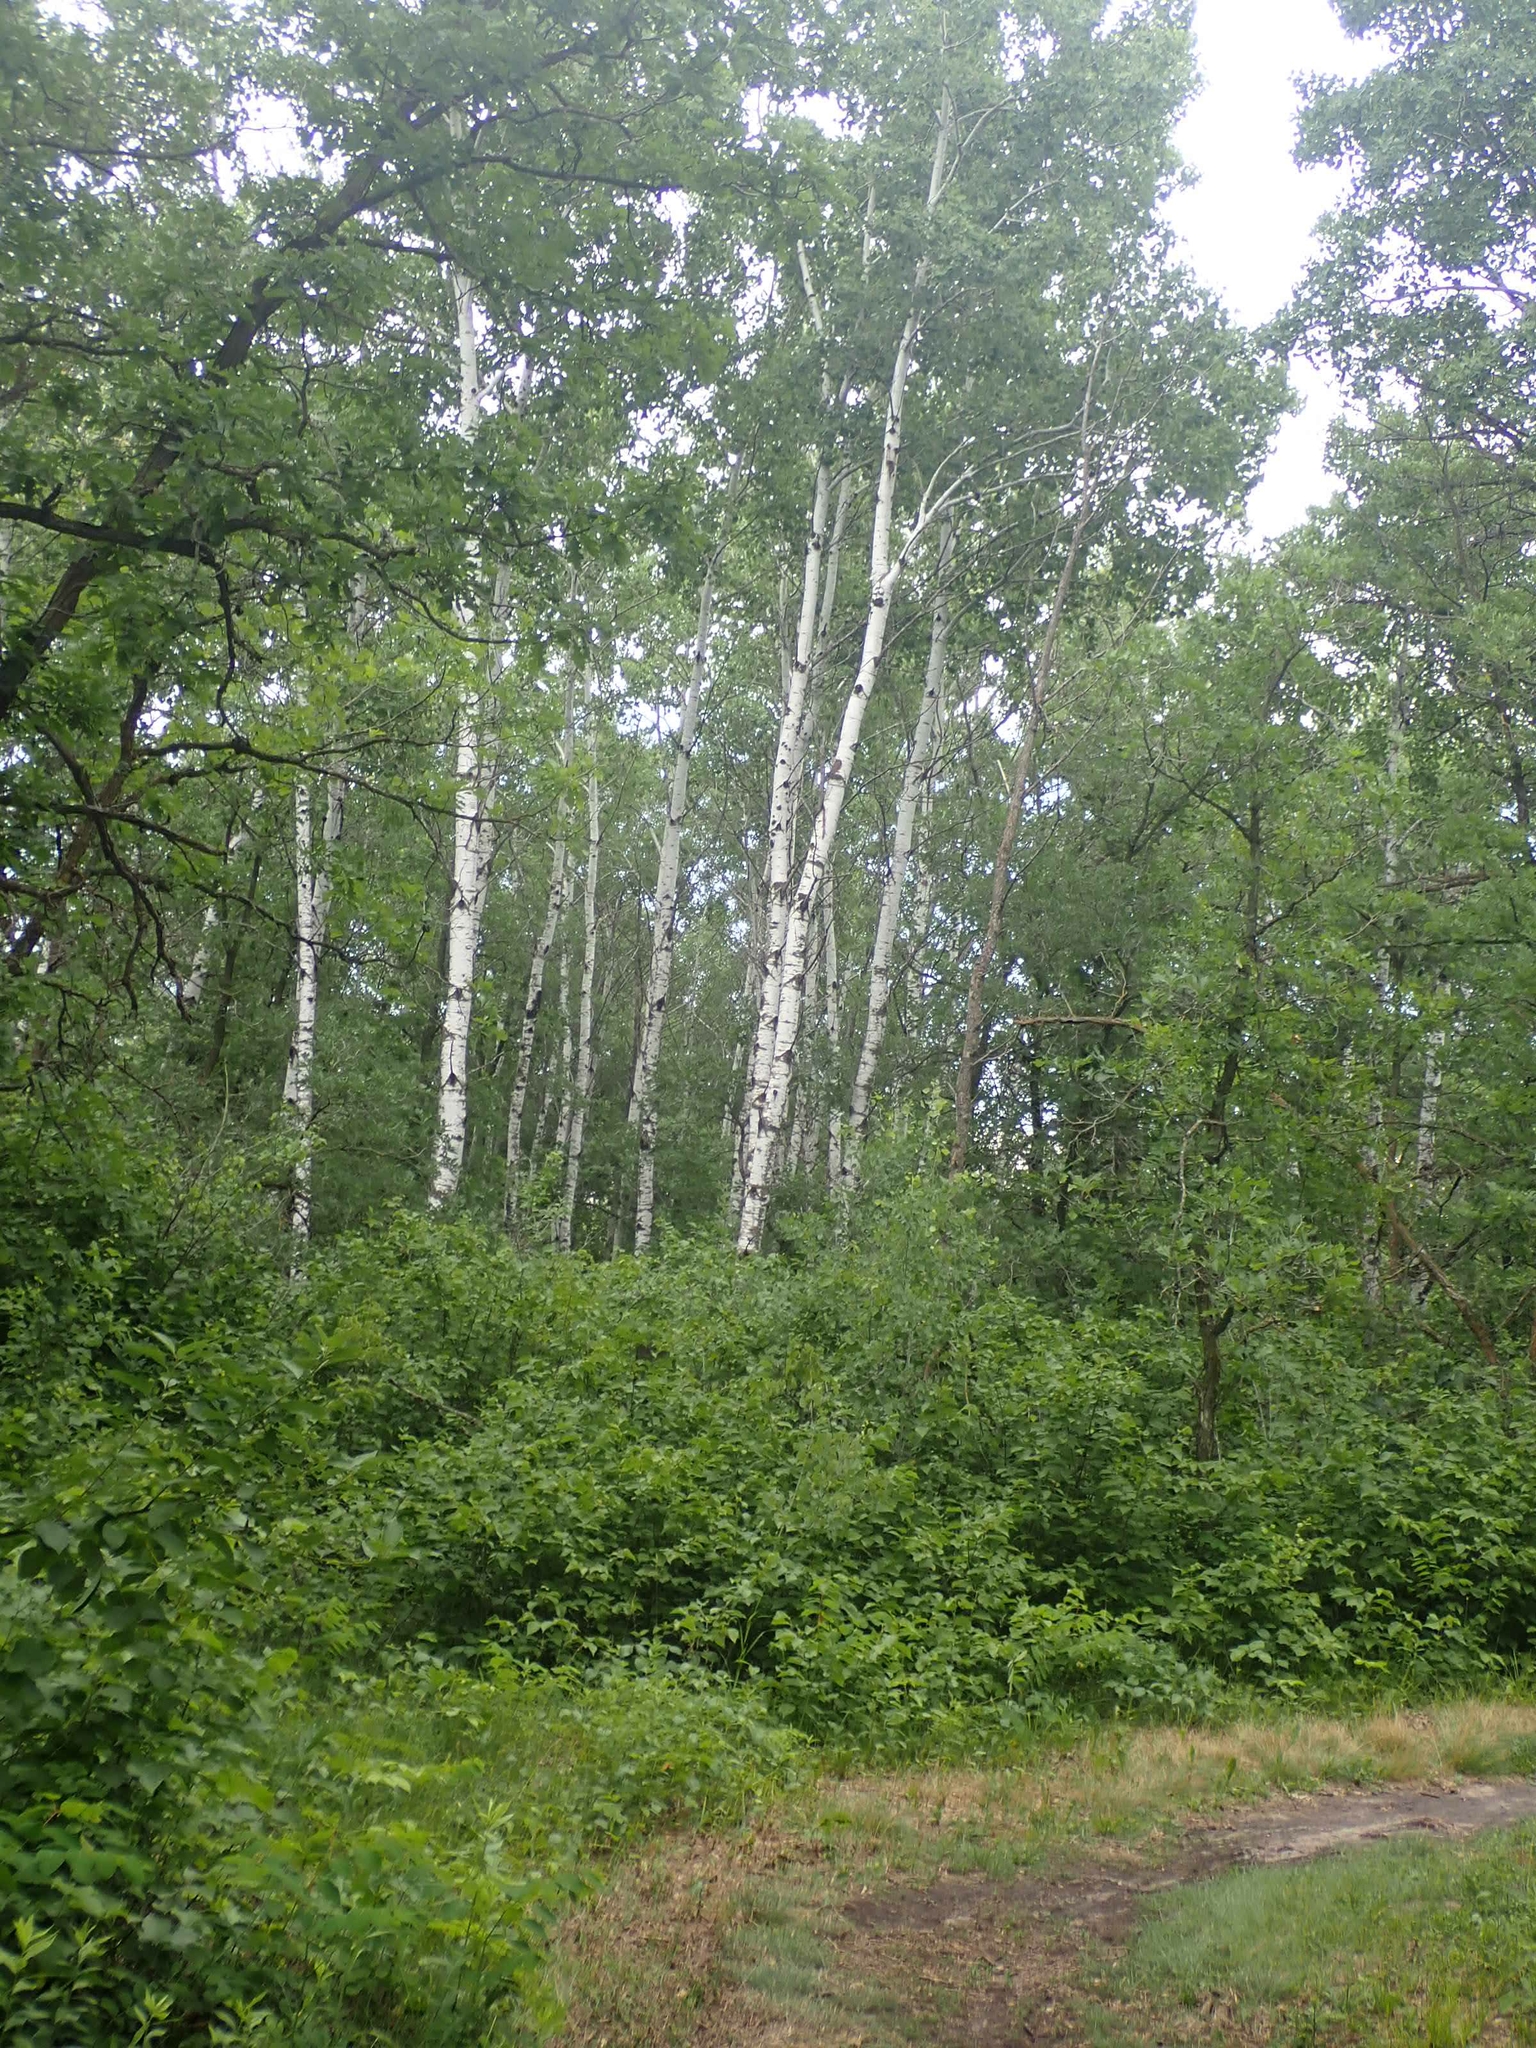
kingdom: Plantae
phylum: Tracheophyta
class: Magnoliopsida
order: Malpighiales
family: Salicaceae
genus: Populus
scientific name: Populus tremuloides
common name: Quaking aspen
